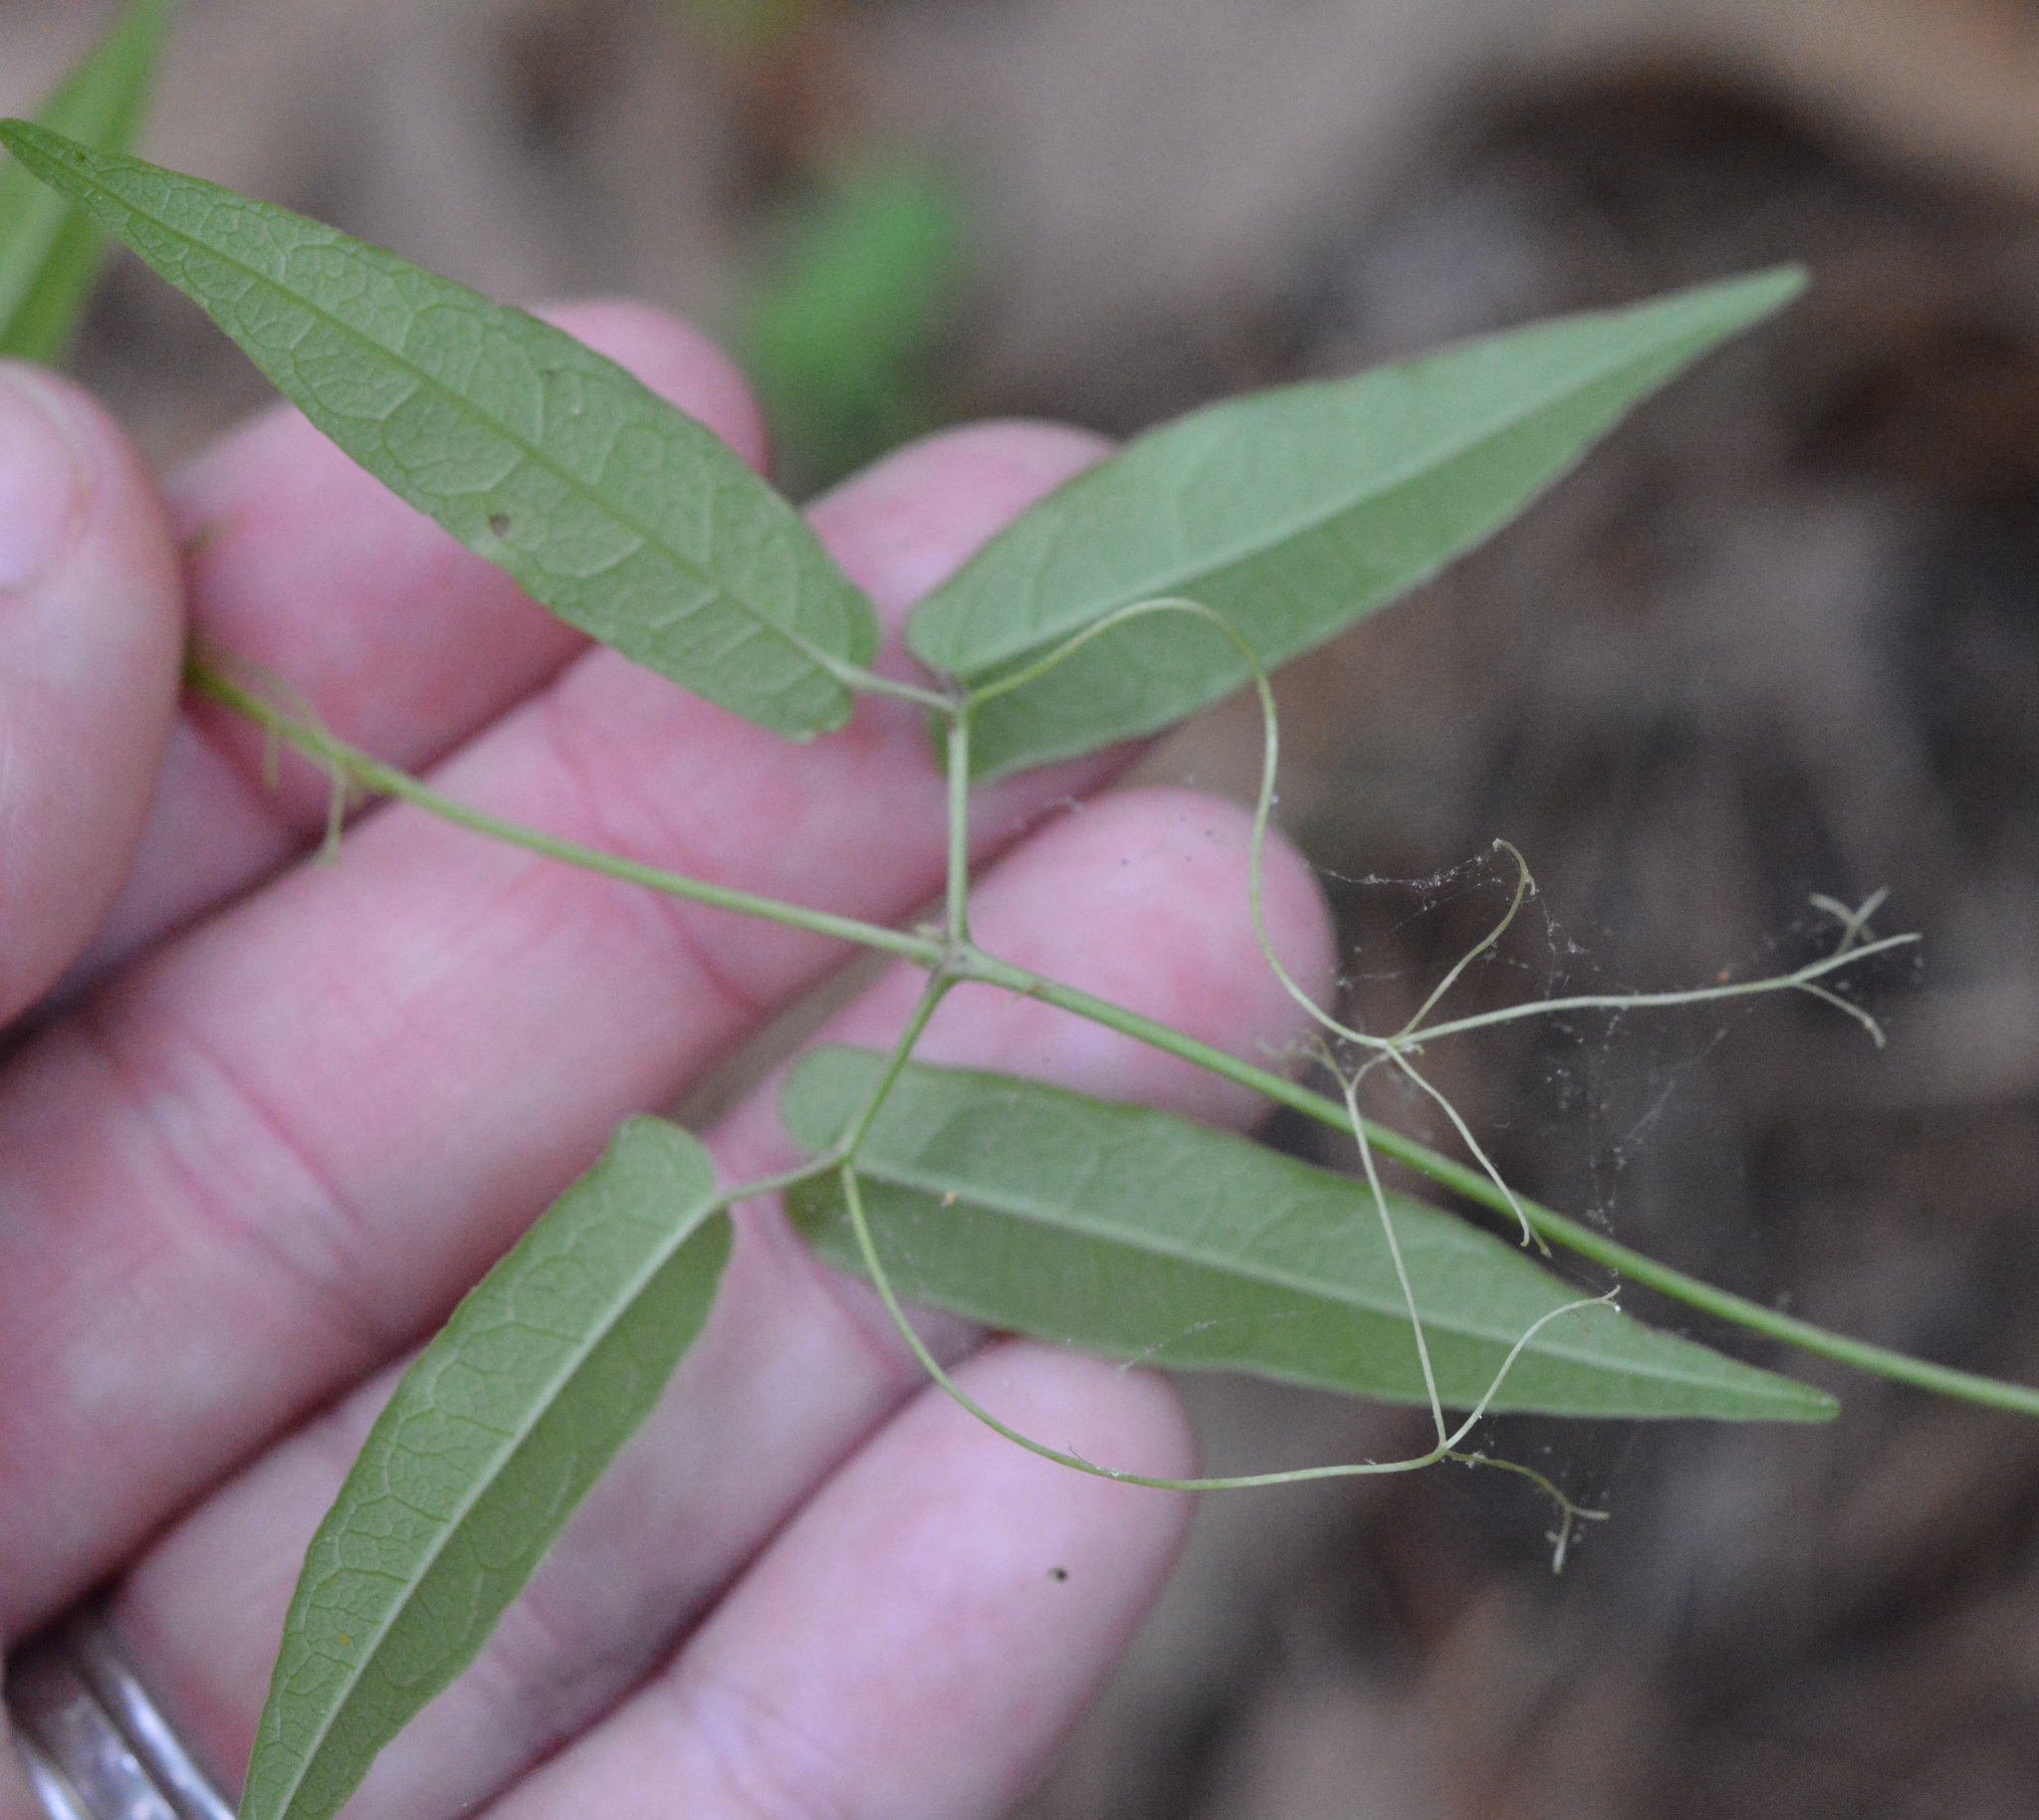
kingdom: Plantae
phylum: Tracheophyta
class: Magnoliopsida
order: Gentianales
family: Gelsemiaceae
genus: Gelsemium
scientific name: Gelsemium sempervirens
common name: Carolina-jasmine
